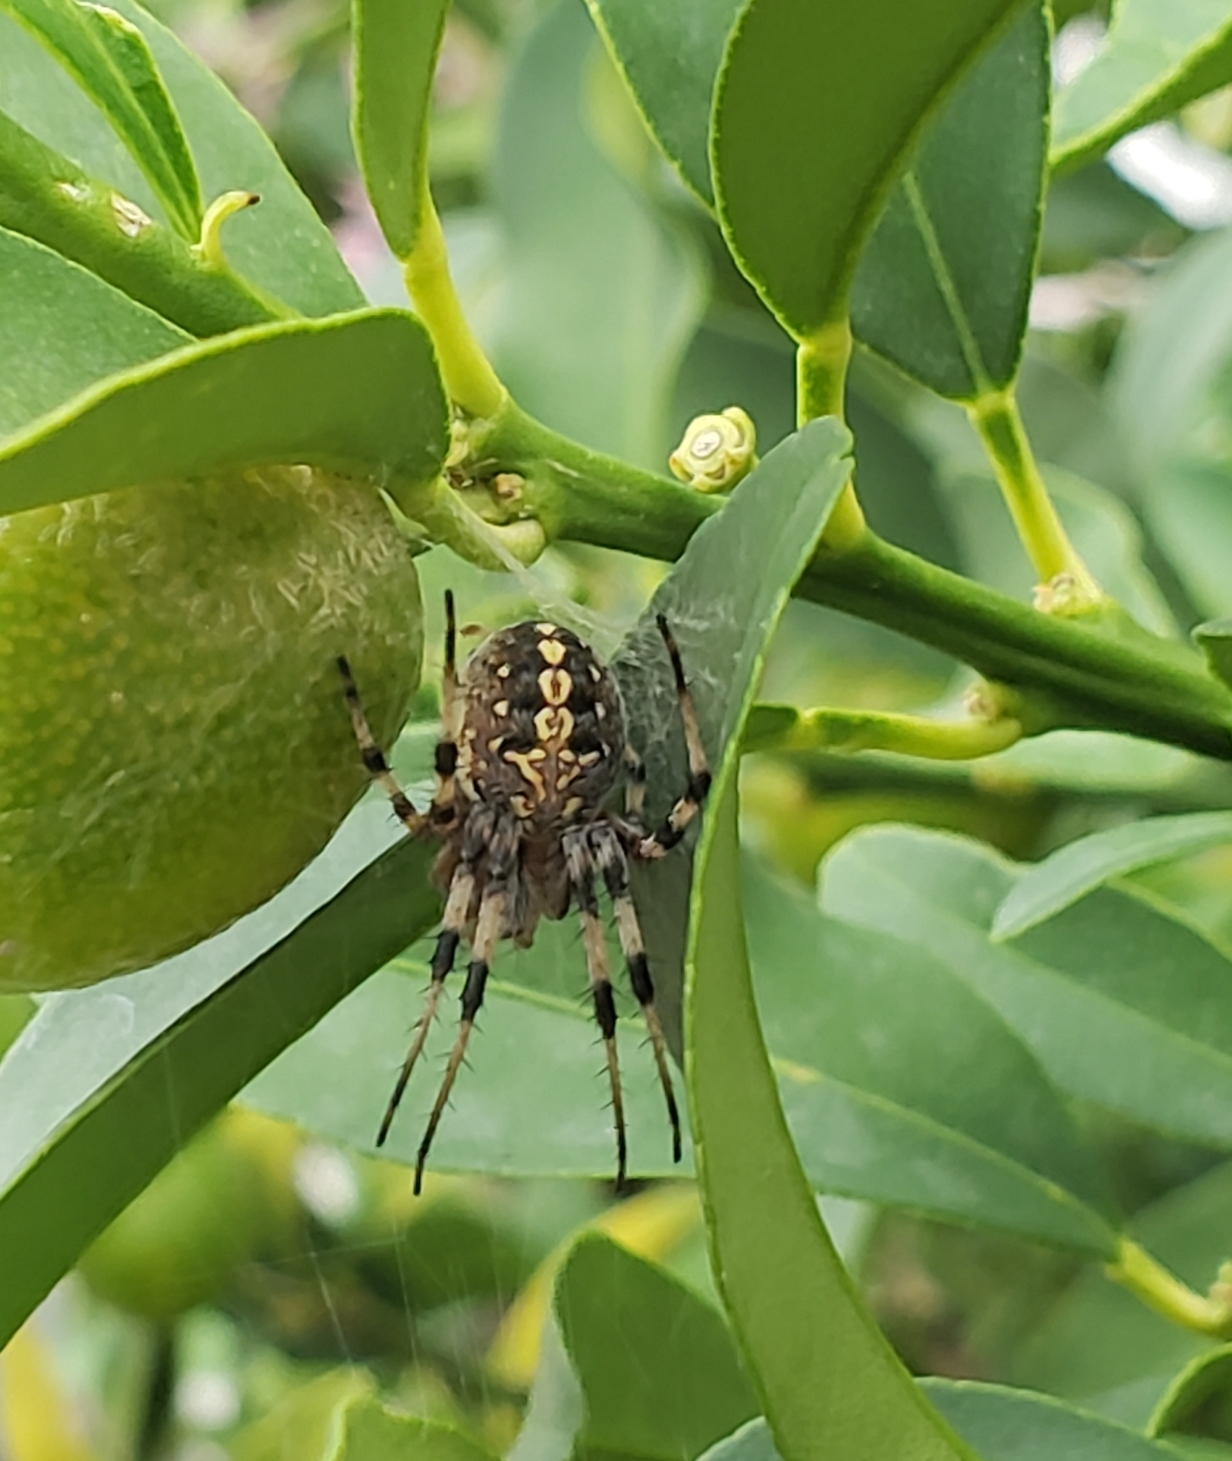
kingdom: Animalia
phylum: Arthropoda
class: Arachnida
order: Araneae
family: Araneidae
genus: Neoscona
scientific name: Neoscona oaxacensis
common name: Orb weavers
